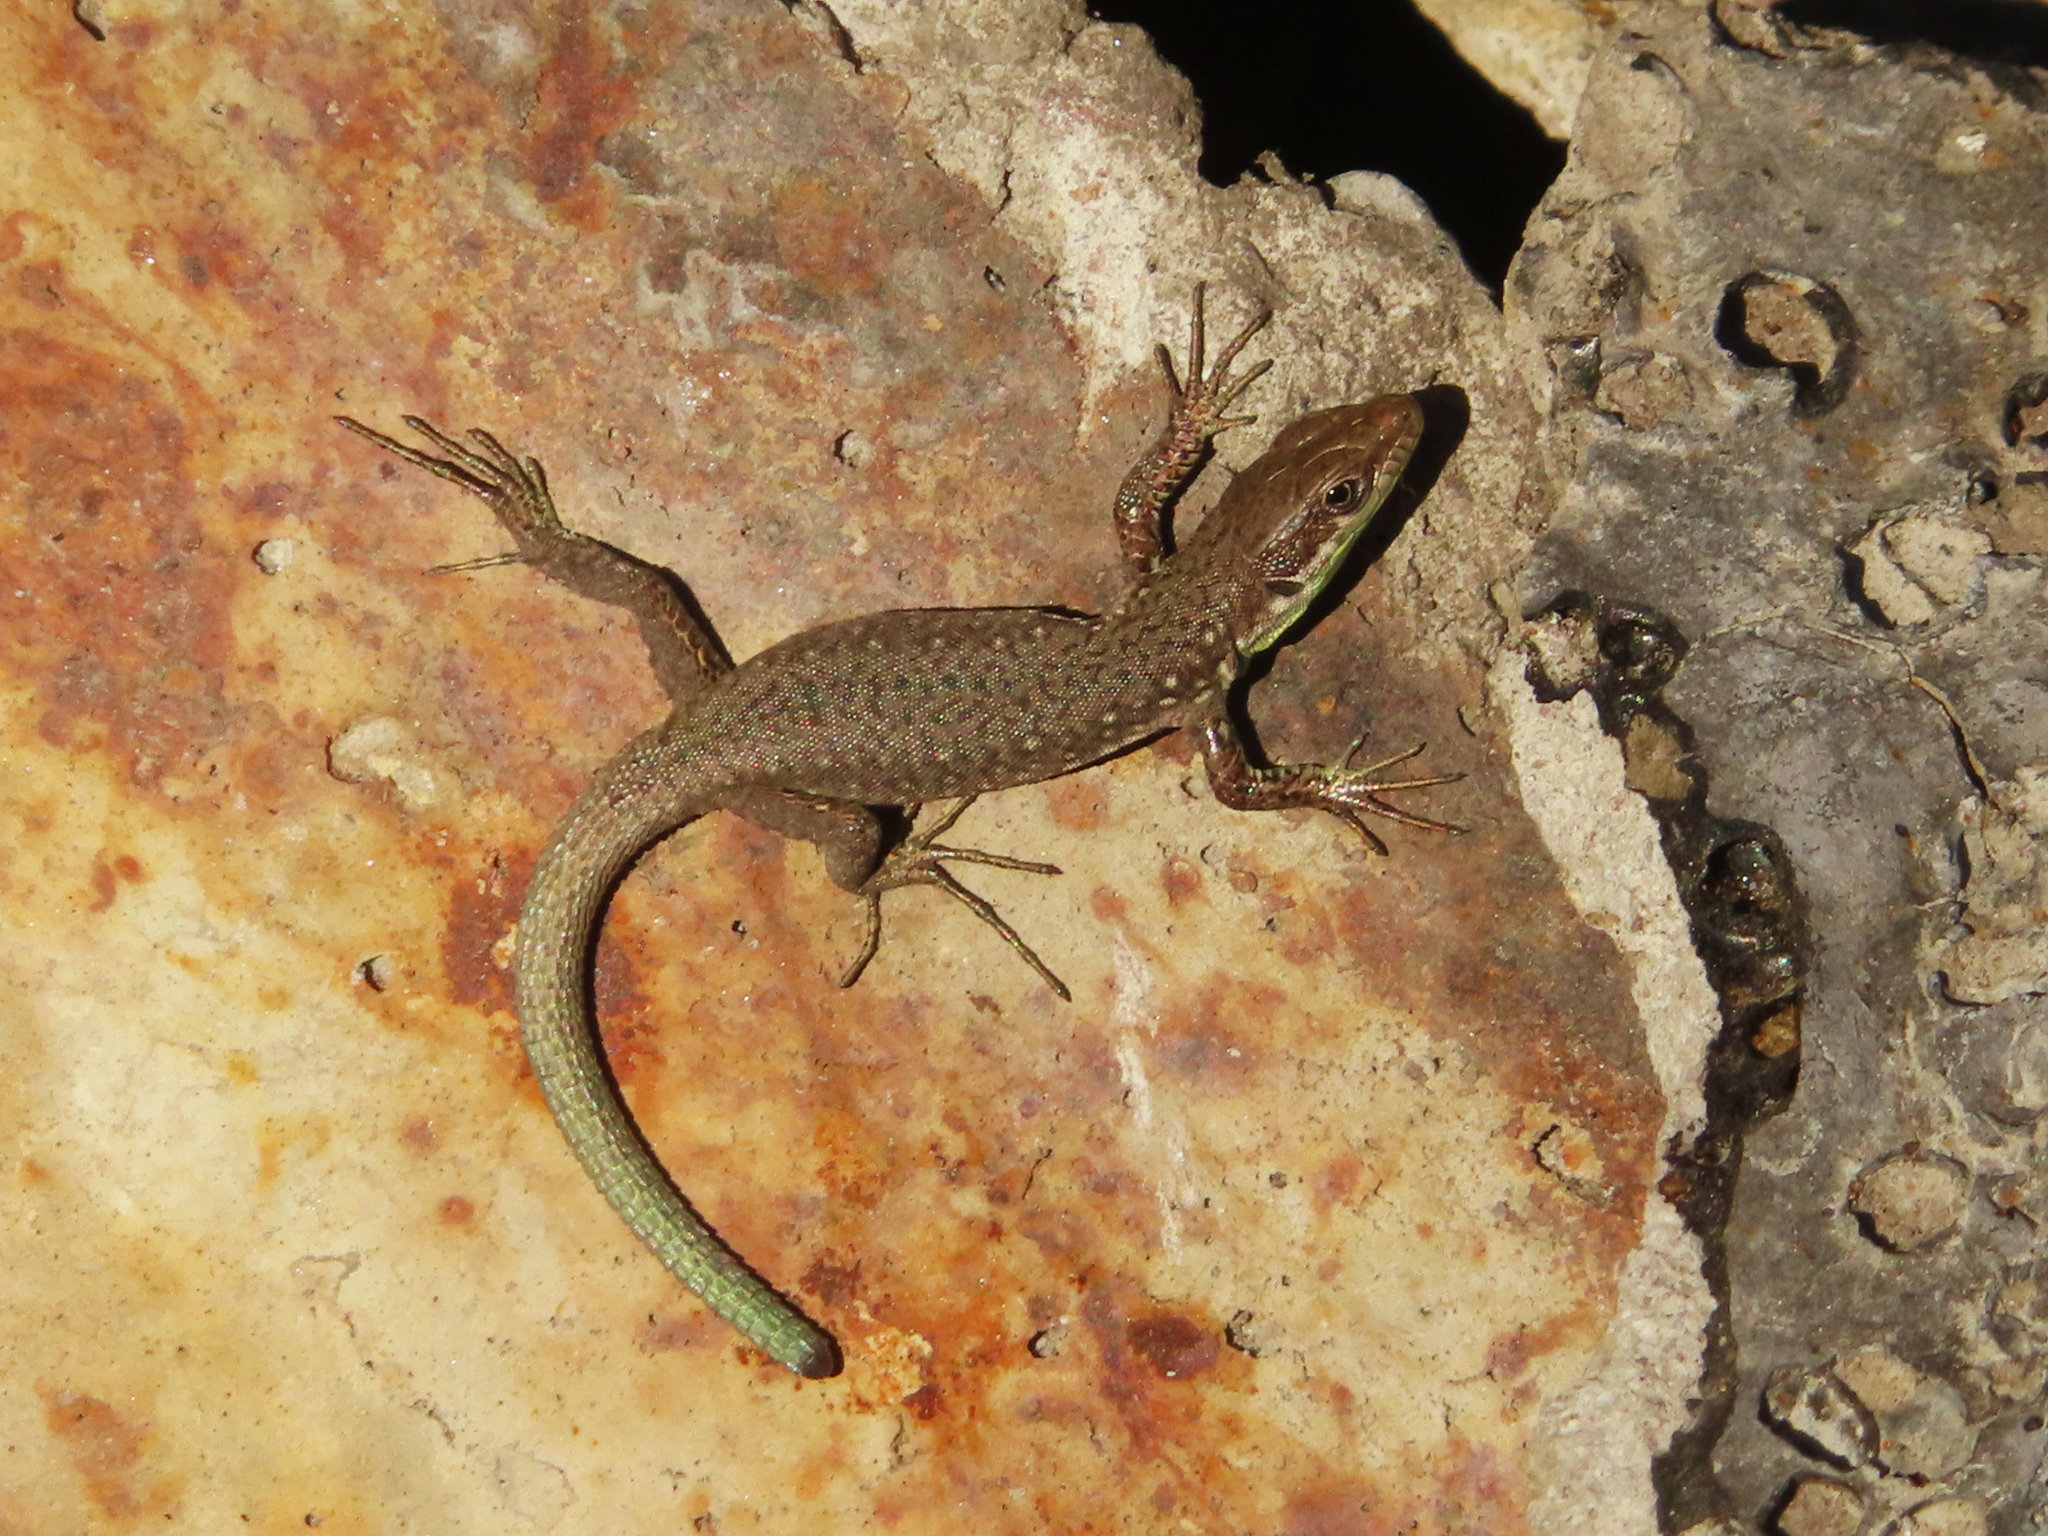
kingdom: Animalia
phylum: Chordata
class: Squamata
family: Lacertidae
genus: Darevskia
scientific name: Darevskia raddei
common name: Radde's lizard
